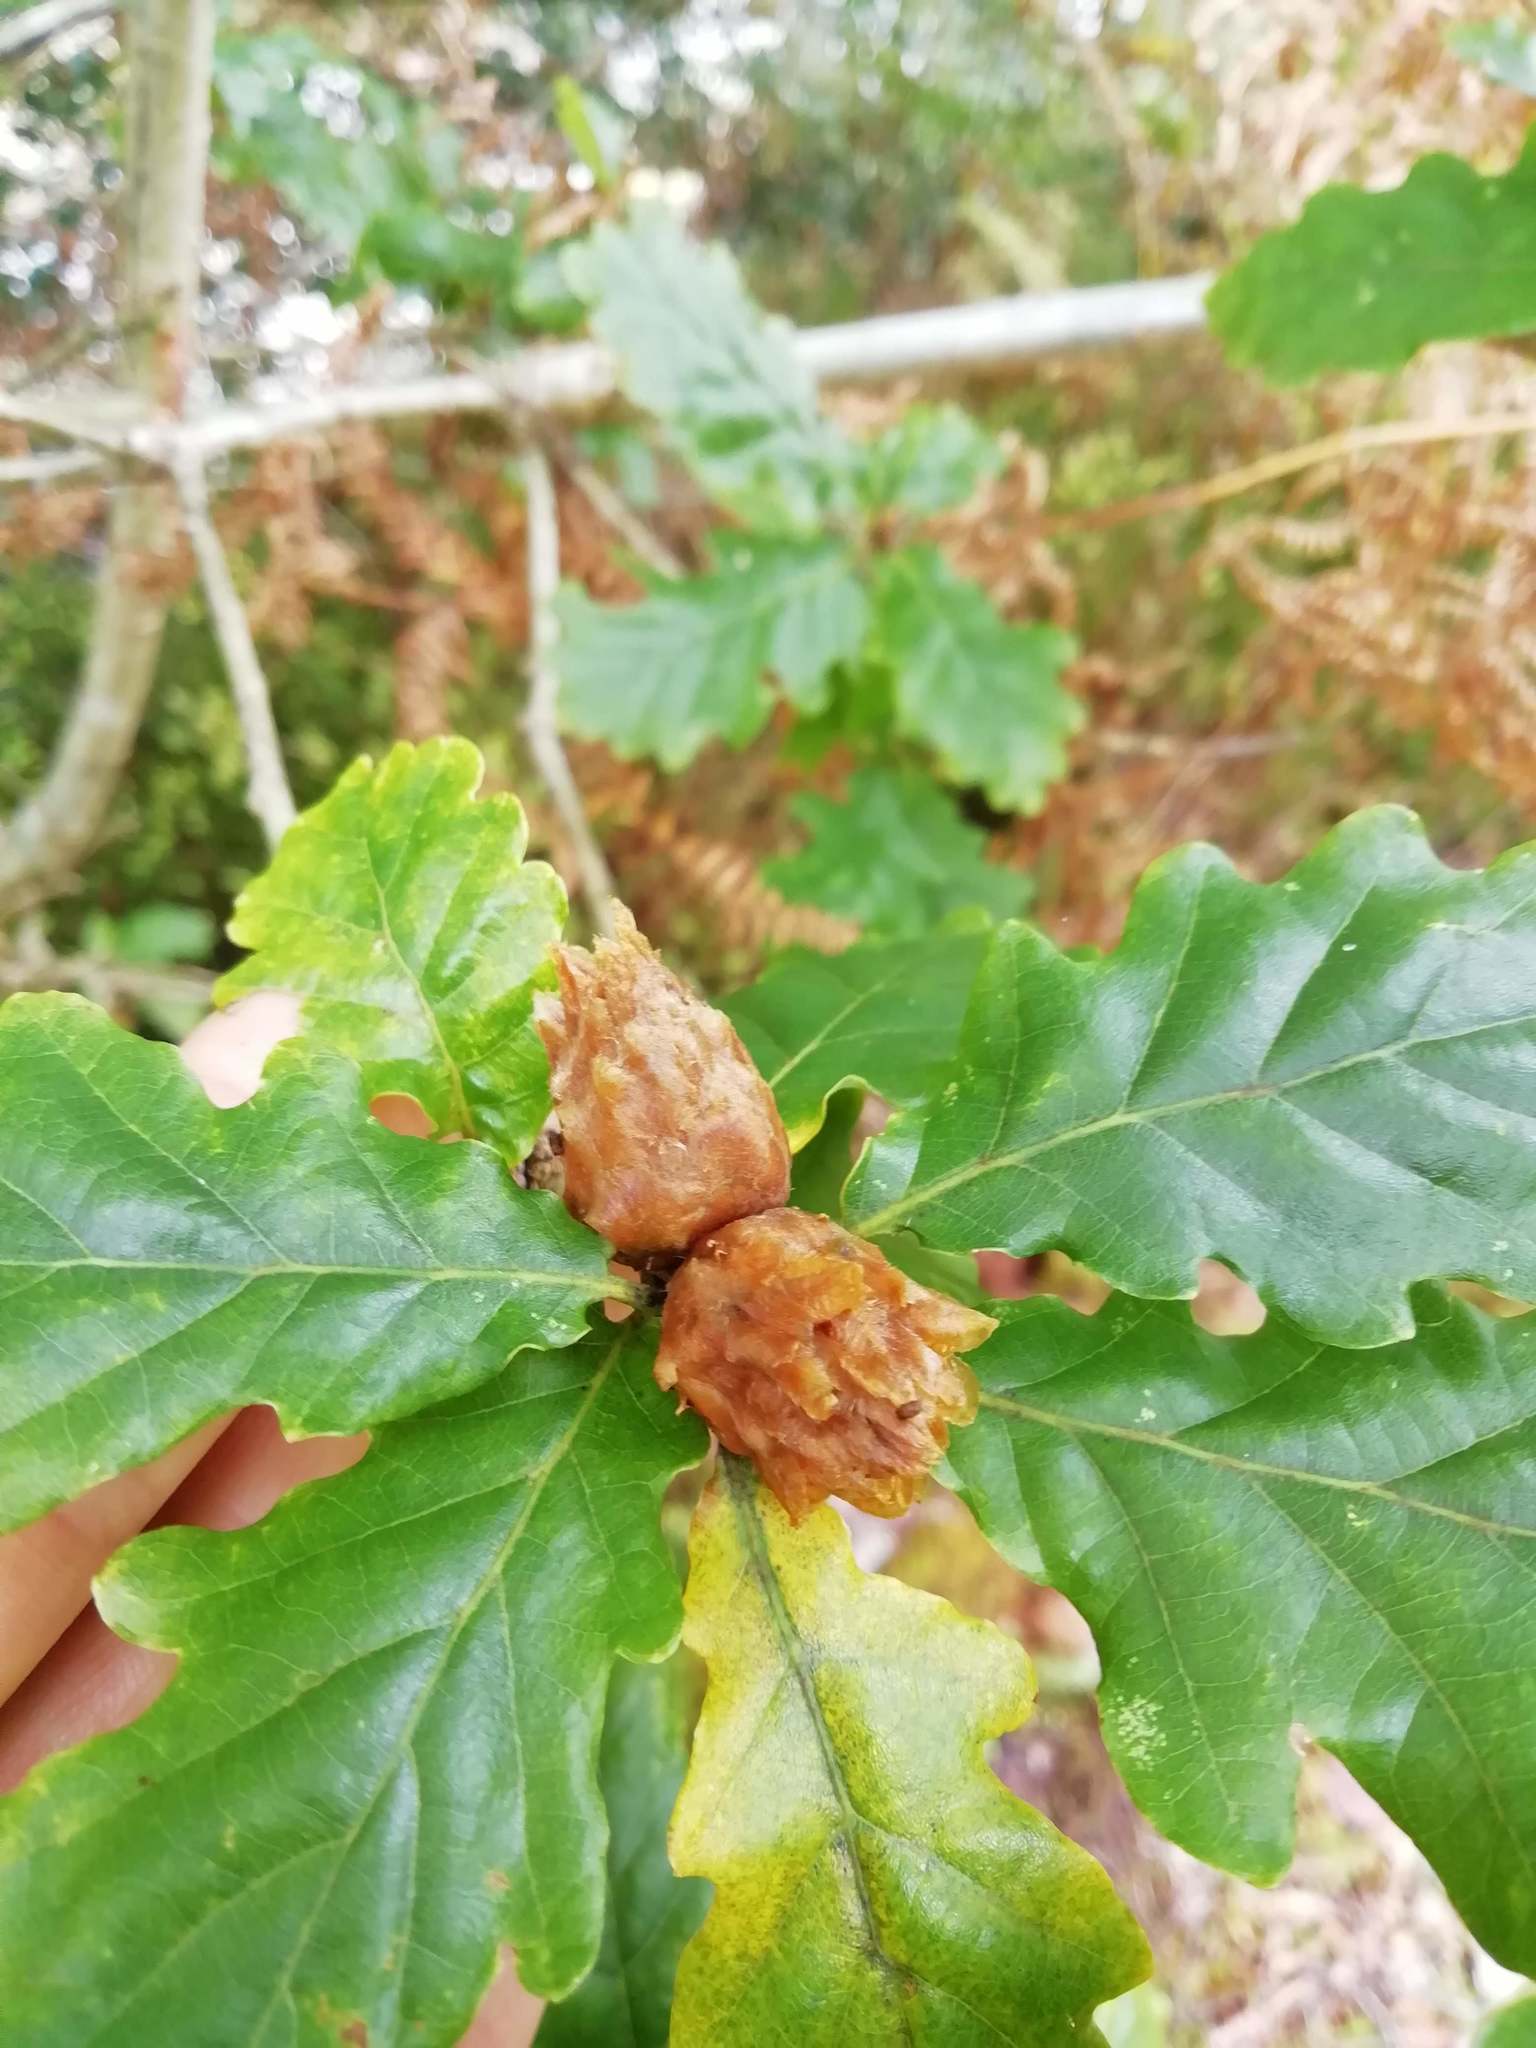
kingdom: Animalia
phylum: Arthropoda
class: Insecta
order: Hymenoptera
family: Cynipidae
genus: Andricus
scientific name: Andricus foecundatrix
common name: Artichoke gall
